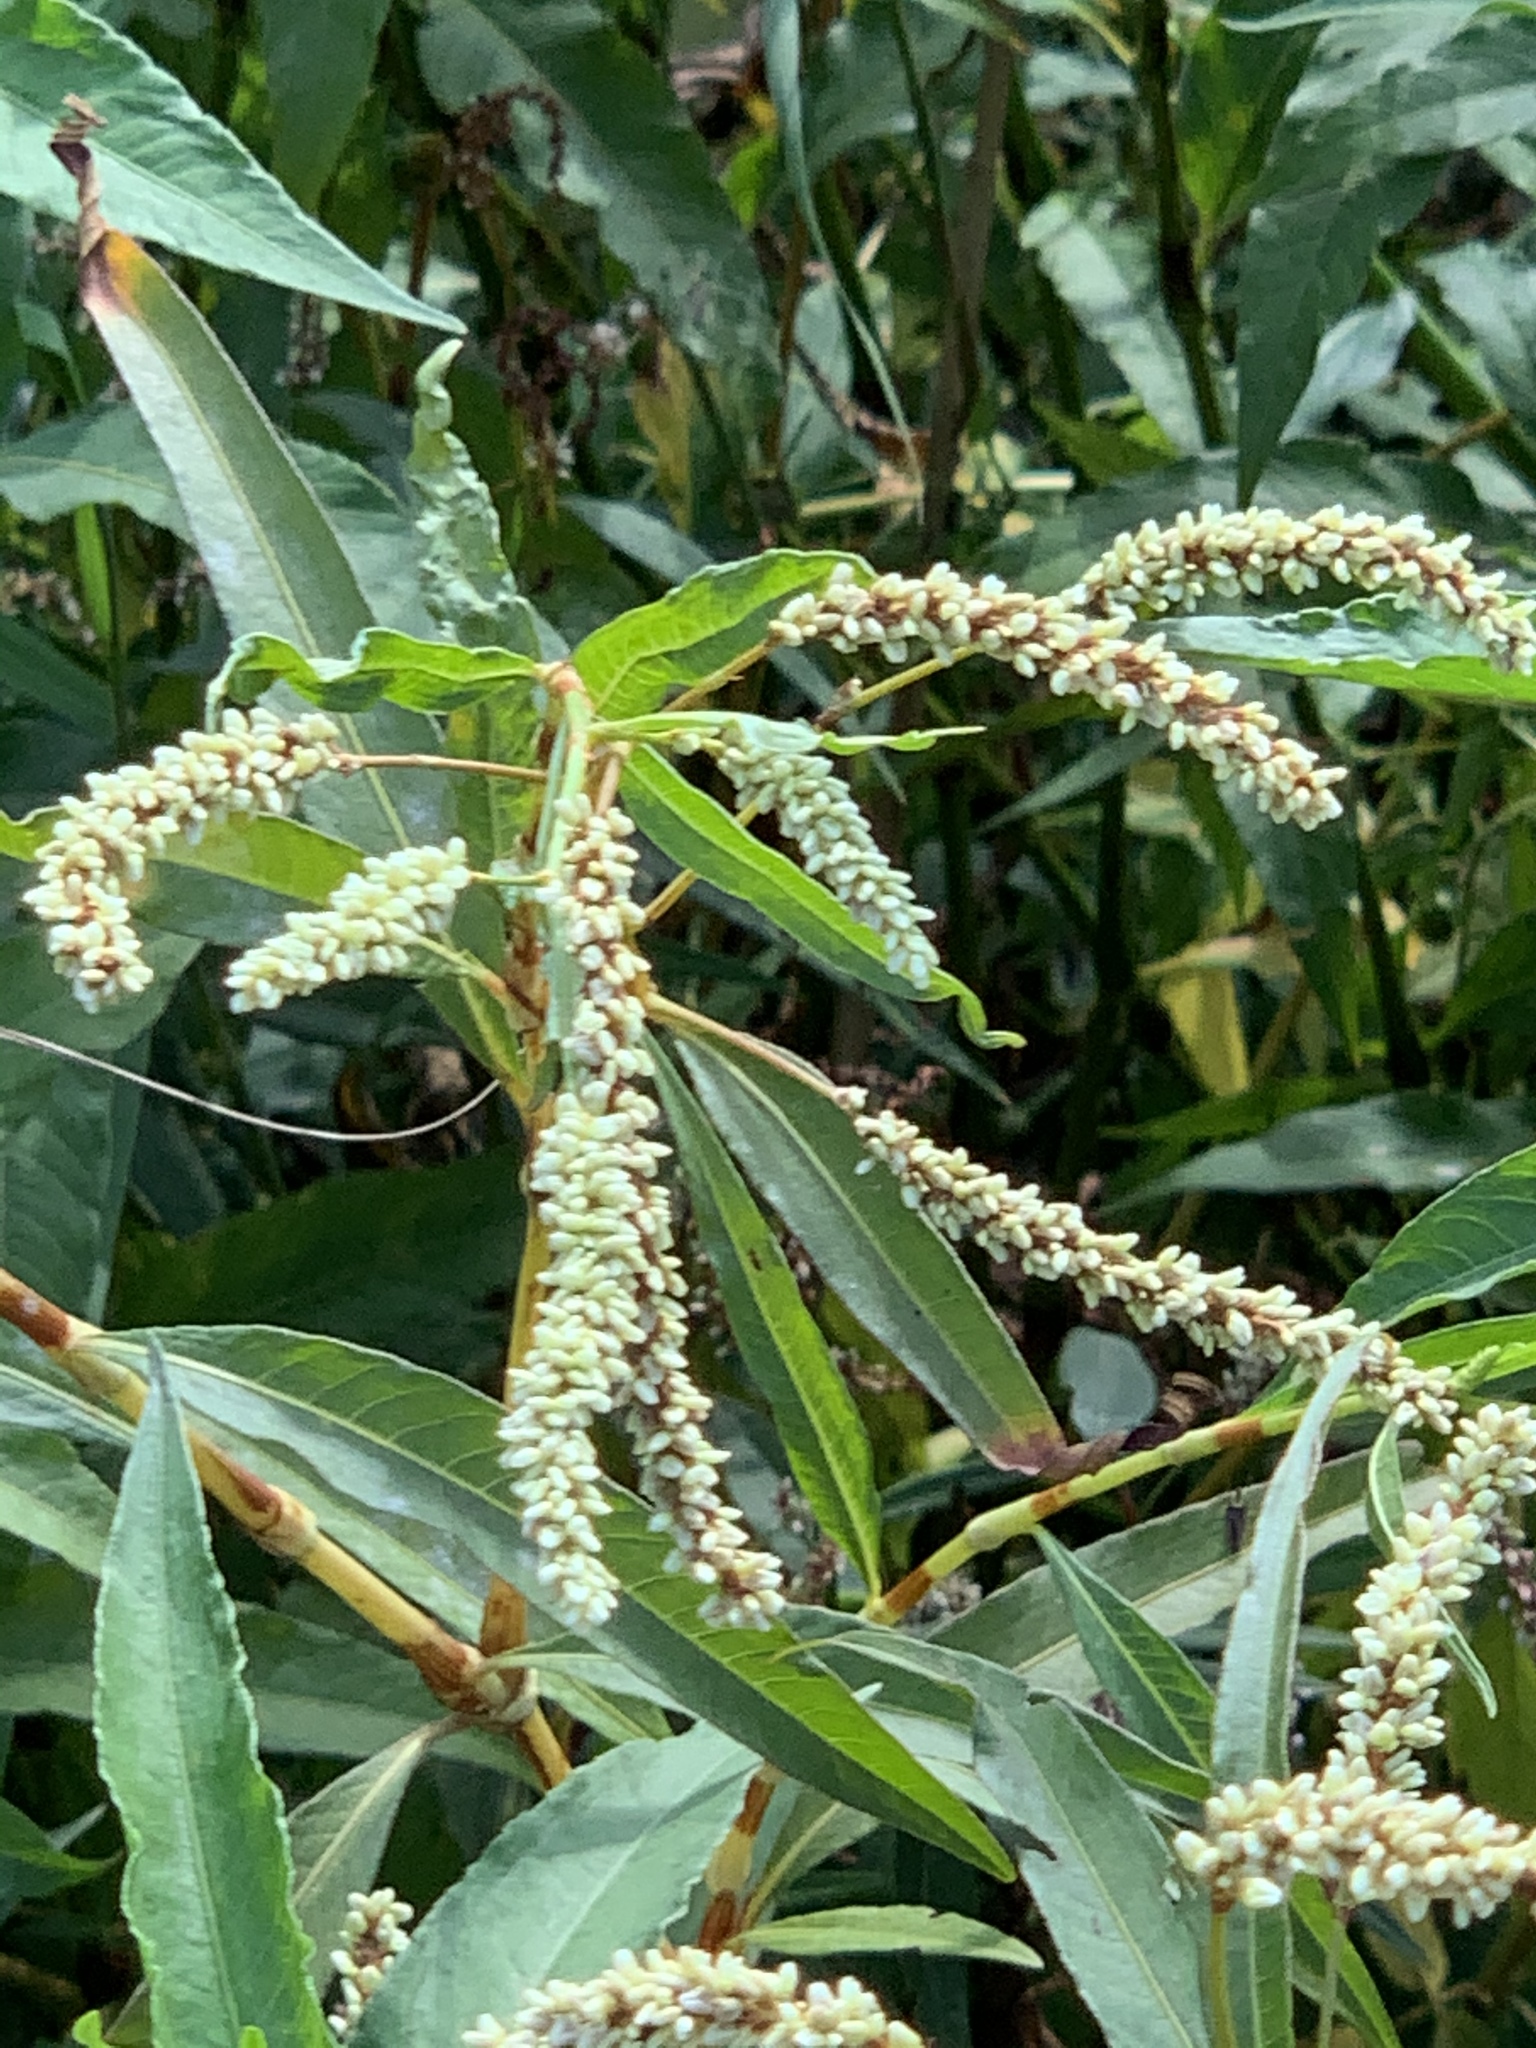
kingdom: Plantae
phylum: Tracheophyta
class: Magnoliopsida
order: Caryophyllales
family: Polygonaceae
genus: Persicaria
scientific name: Persicaria lapathifolia
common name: Curlytop knotweed
